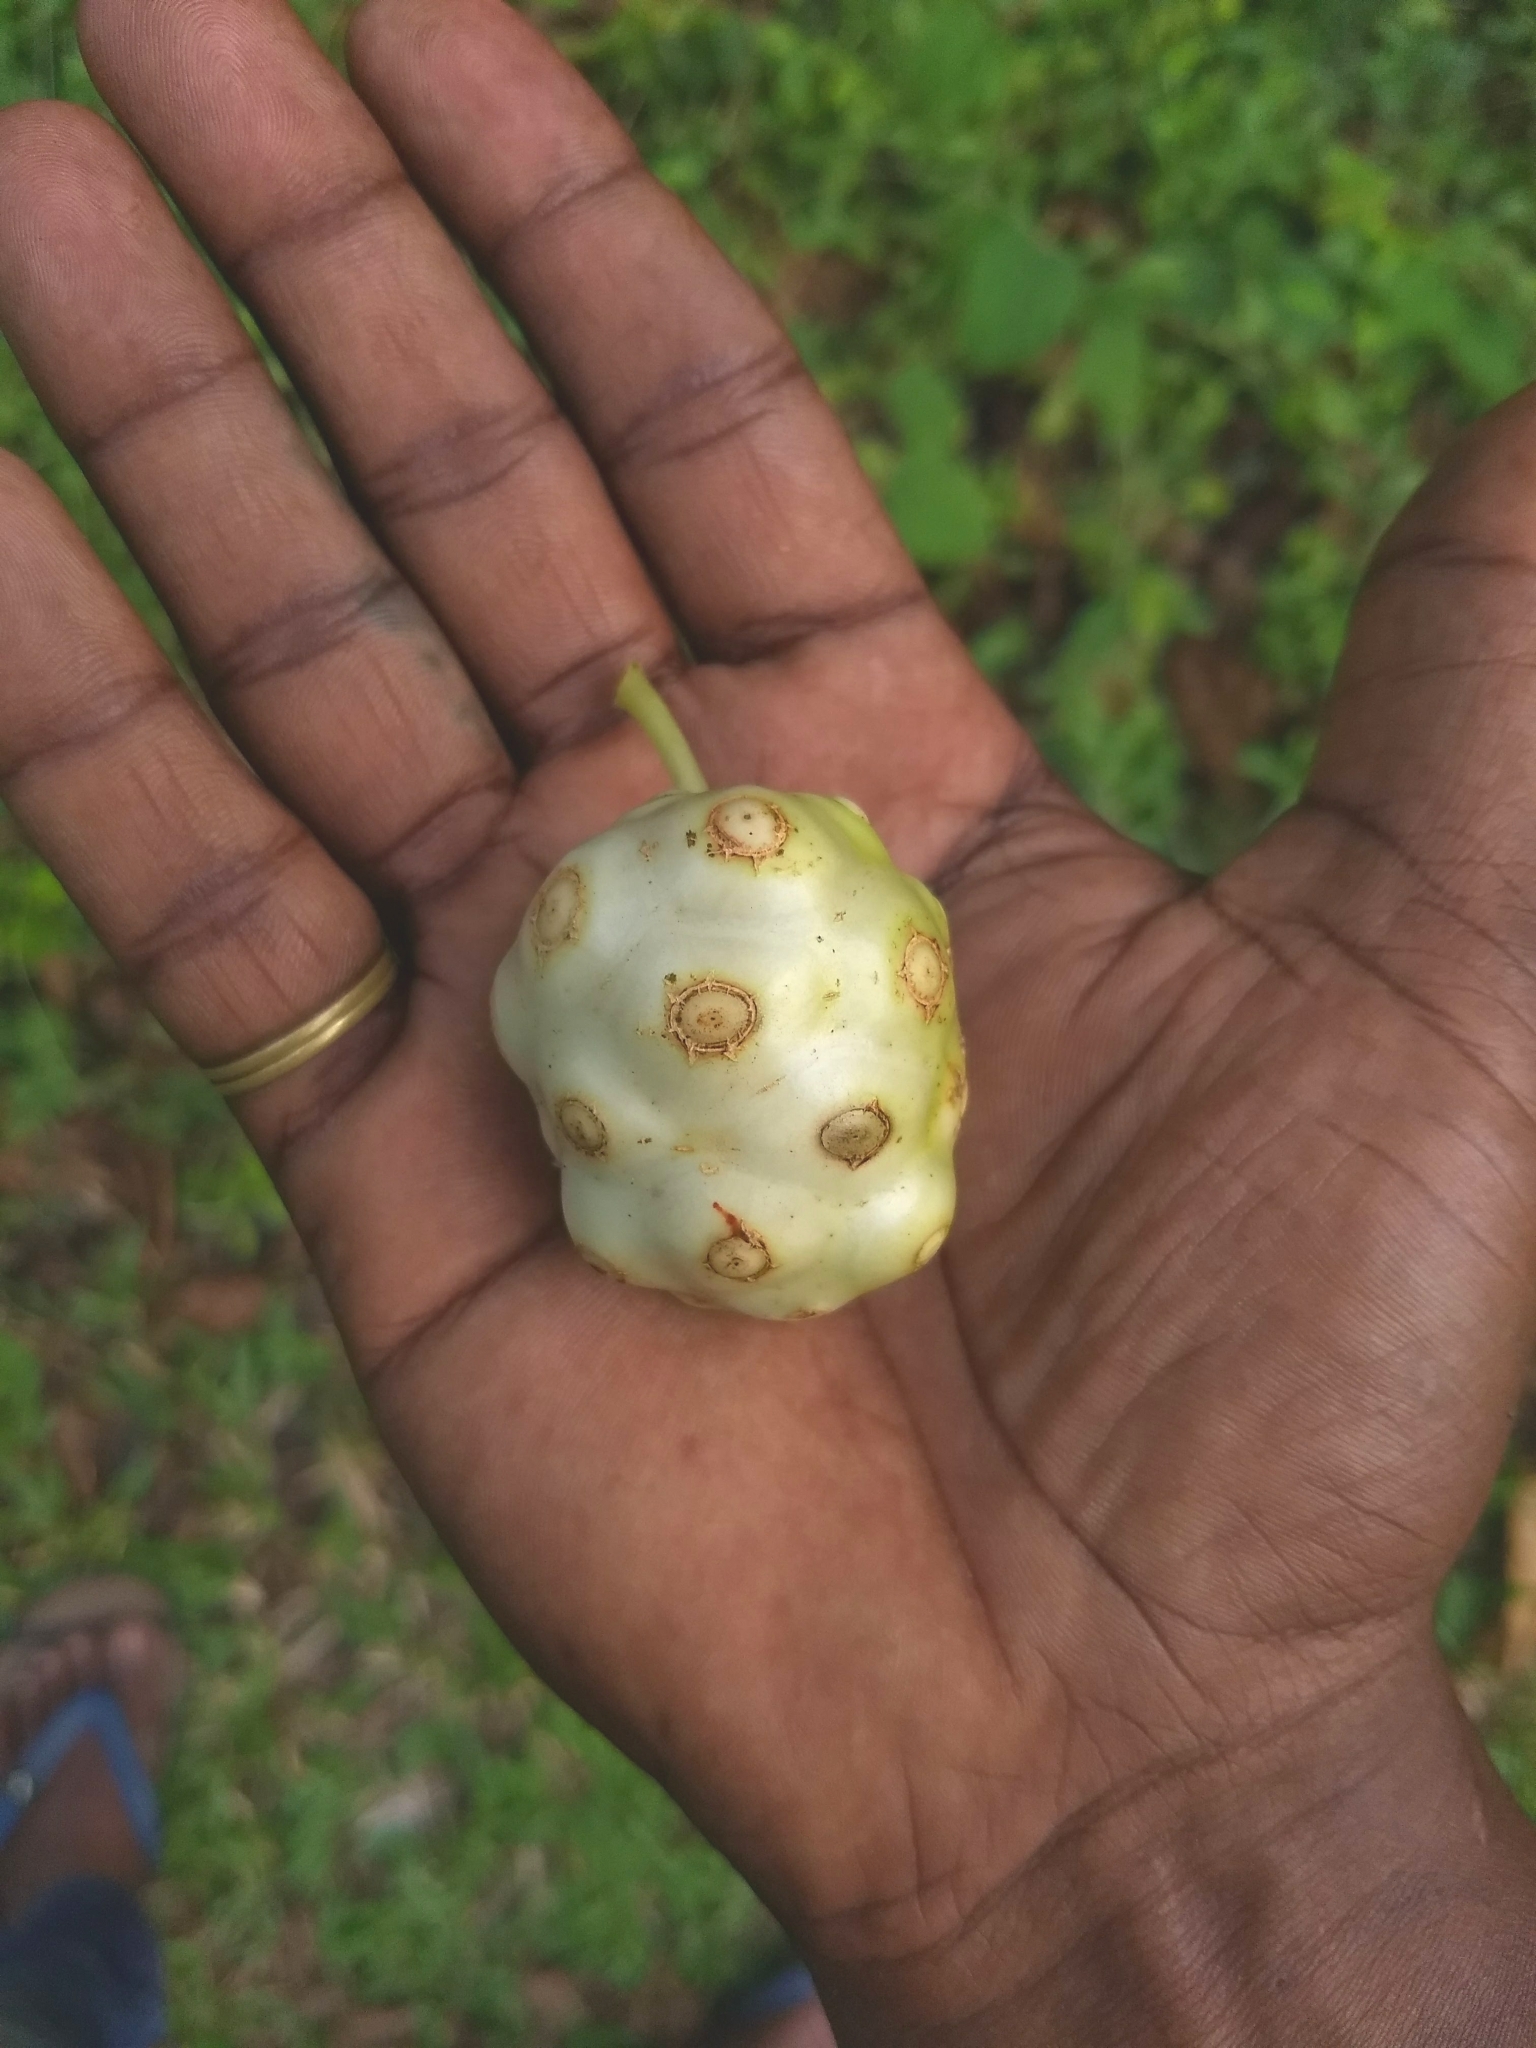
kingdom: Plantae
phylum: Tracheophyta
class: Magnoliopsida
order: Gentianales
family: Rubiaceae
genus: Morinda
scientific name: Morinda citrifolia
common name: Indian-mulberry
